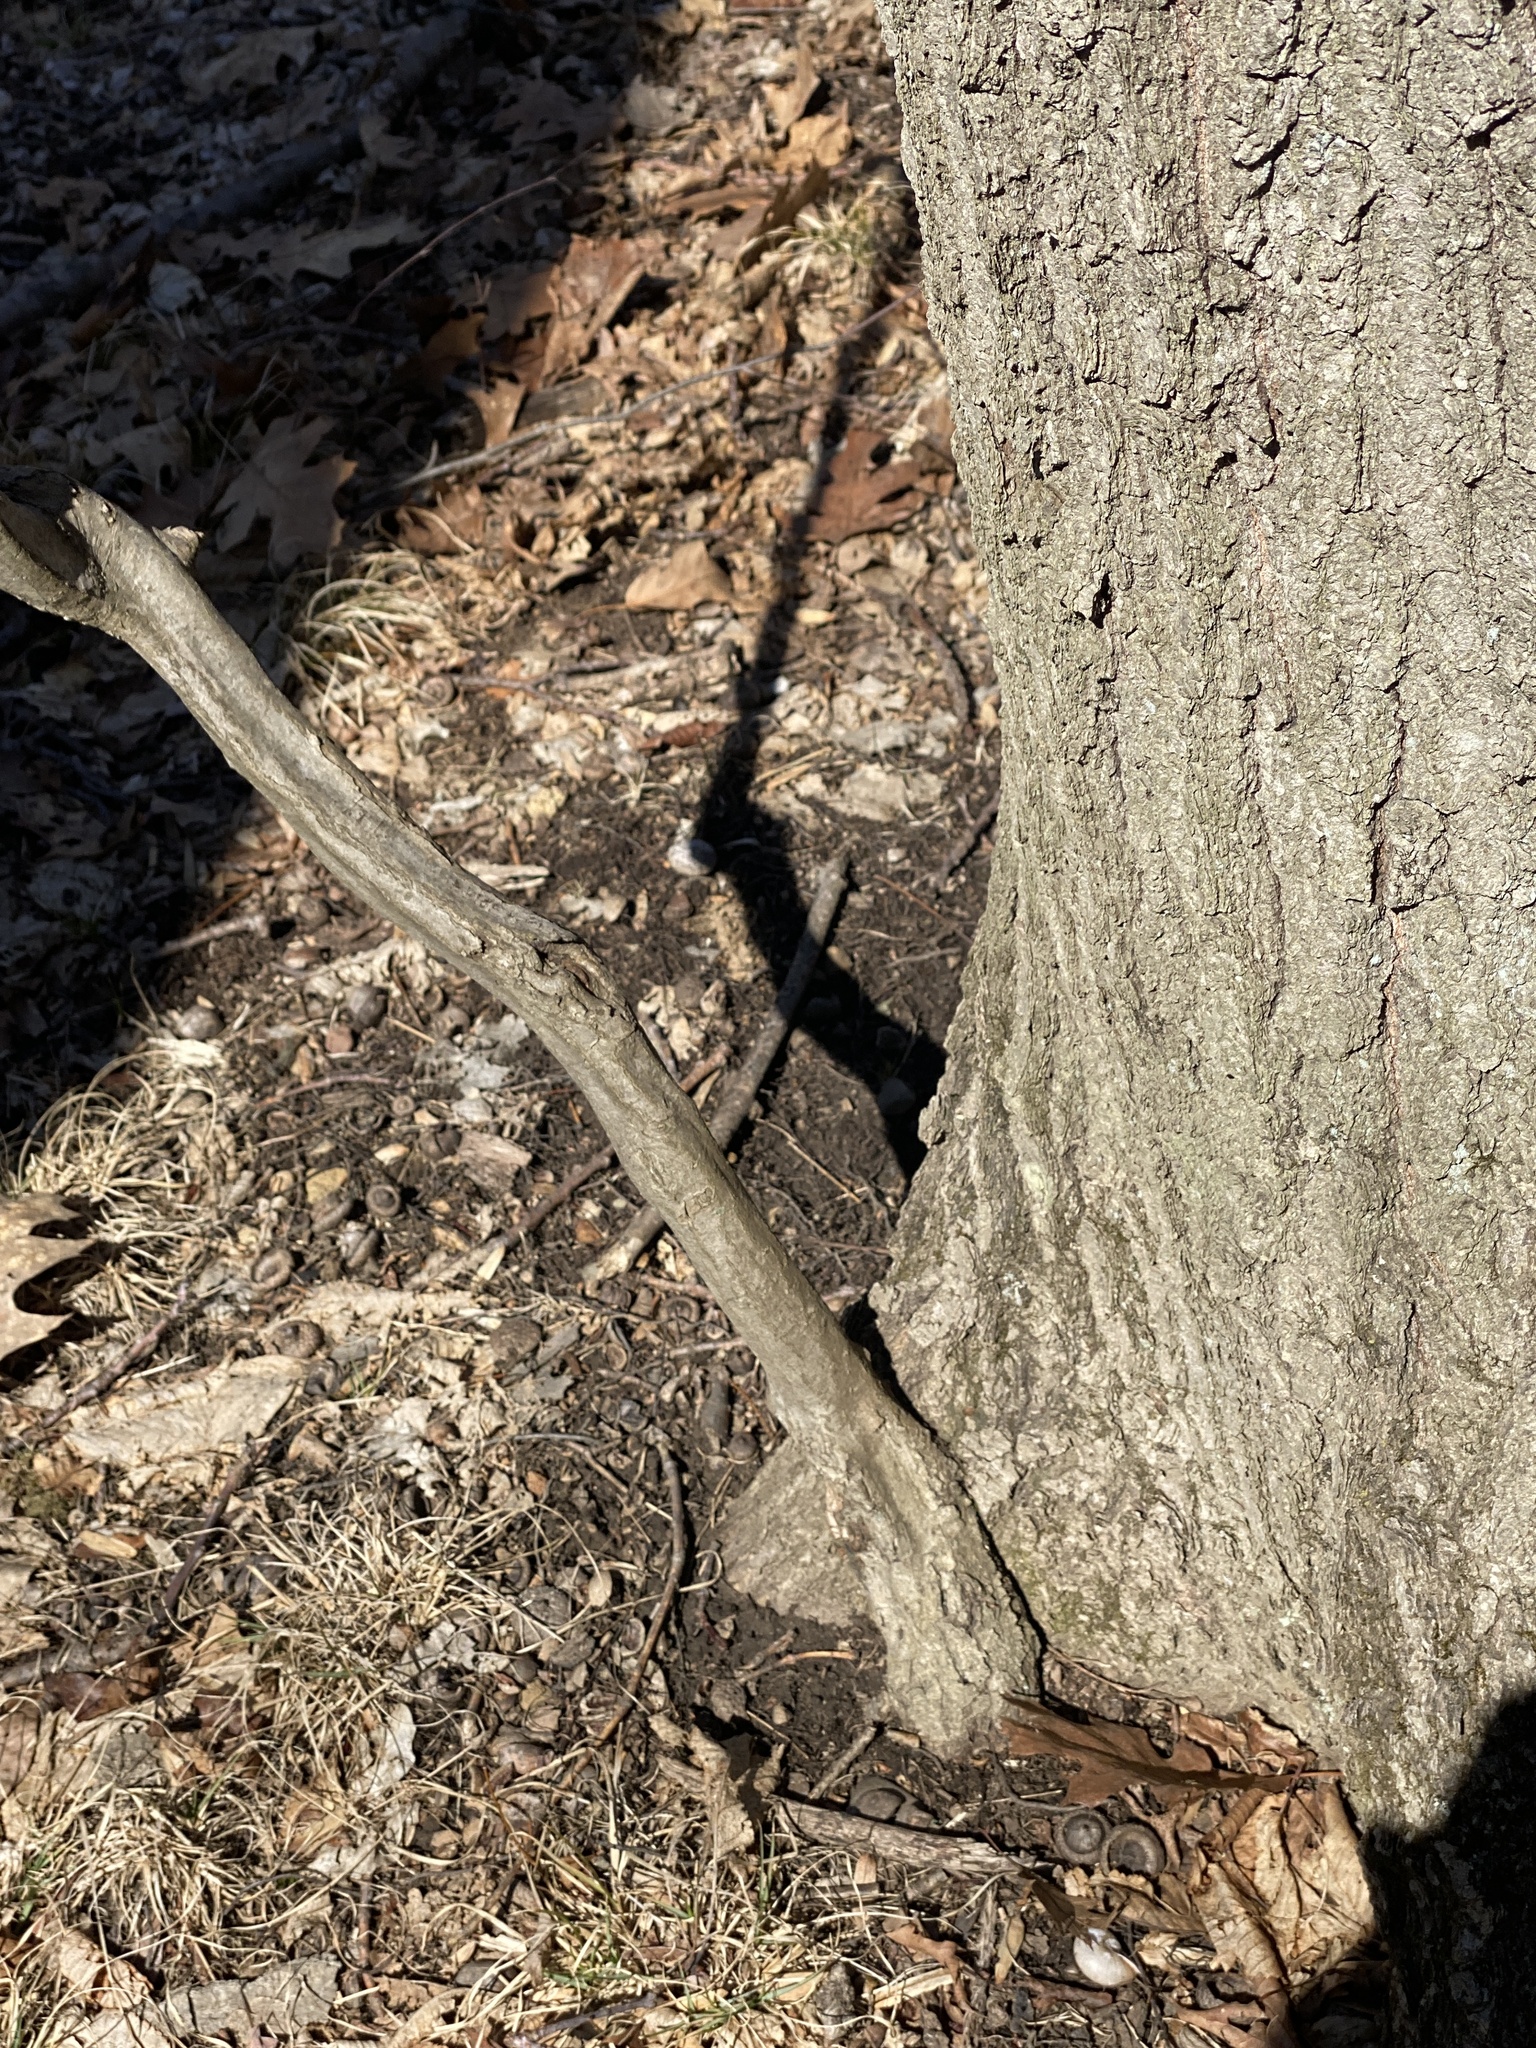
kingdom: Plantae
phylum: Tracheophyta
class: Magnoliopsida
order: Fagales
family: Betulaceae
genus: Carpinus
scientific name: Carpinus caroliniana
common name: American hornbeam
